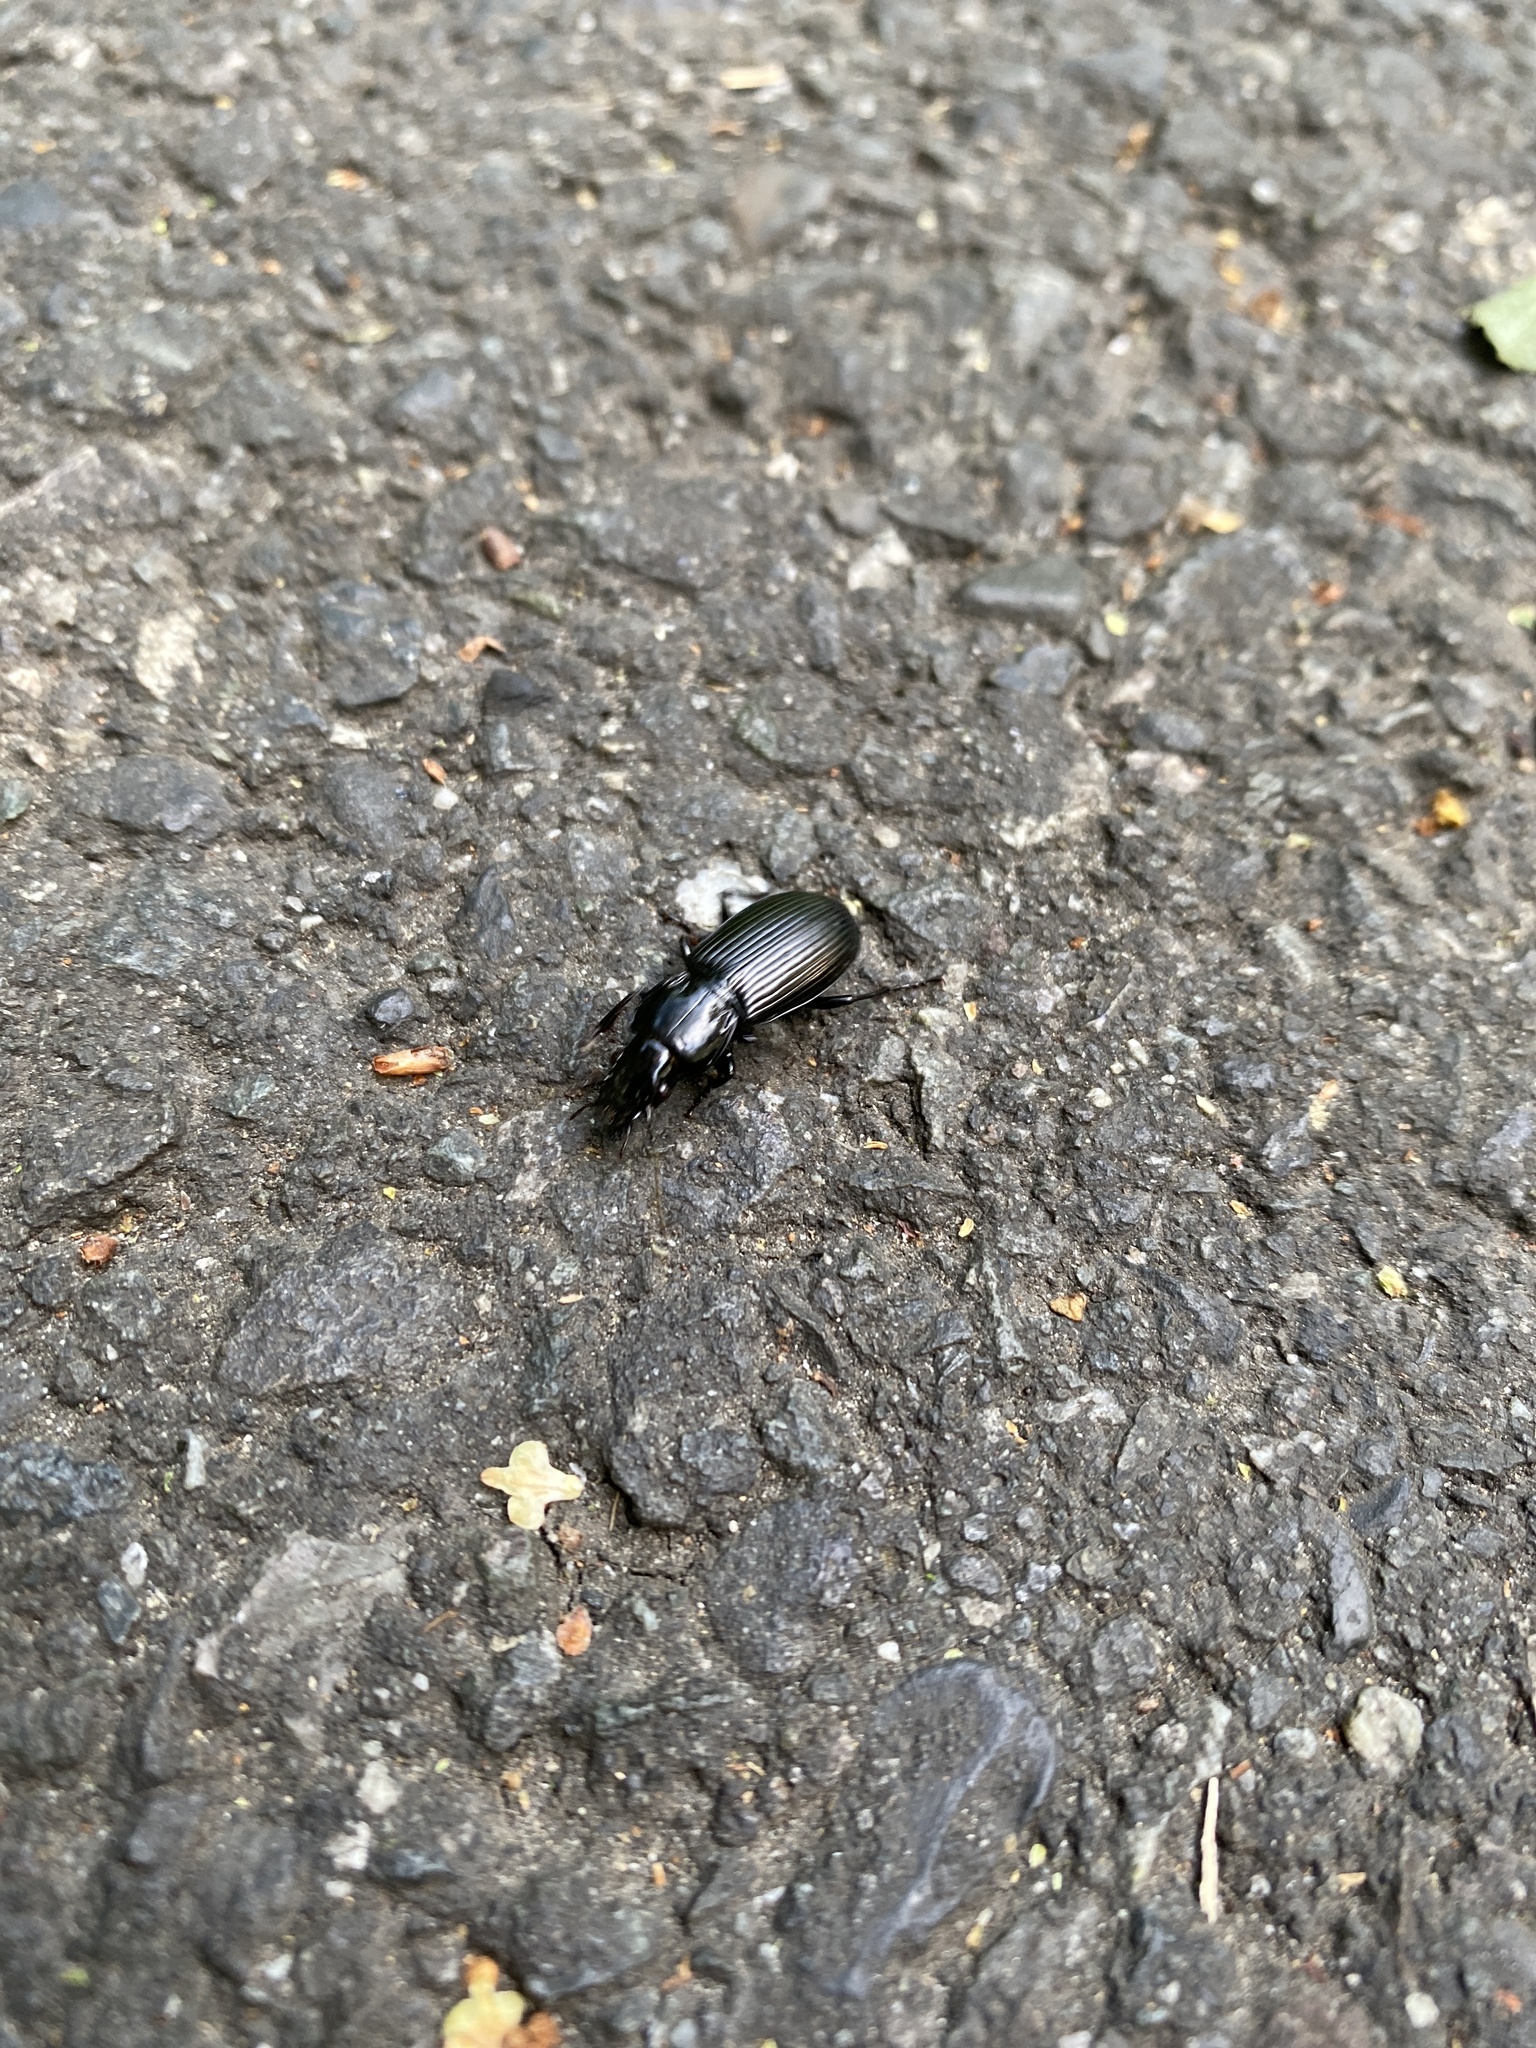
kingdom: Animalia
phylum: Arthropoda
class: Insecta
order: Coleoptera
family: Carabidae
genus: Pterostichus
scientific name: Pterostichus melanarius
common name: European dark harp ground beetle
